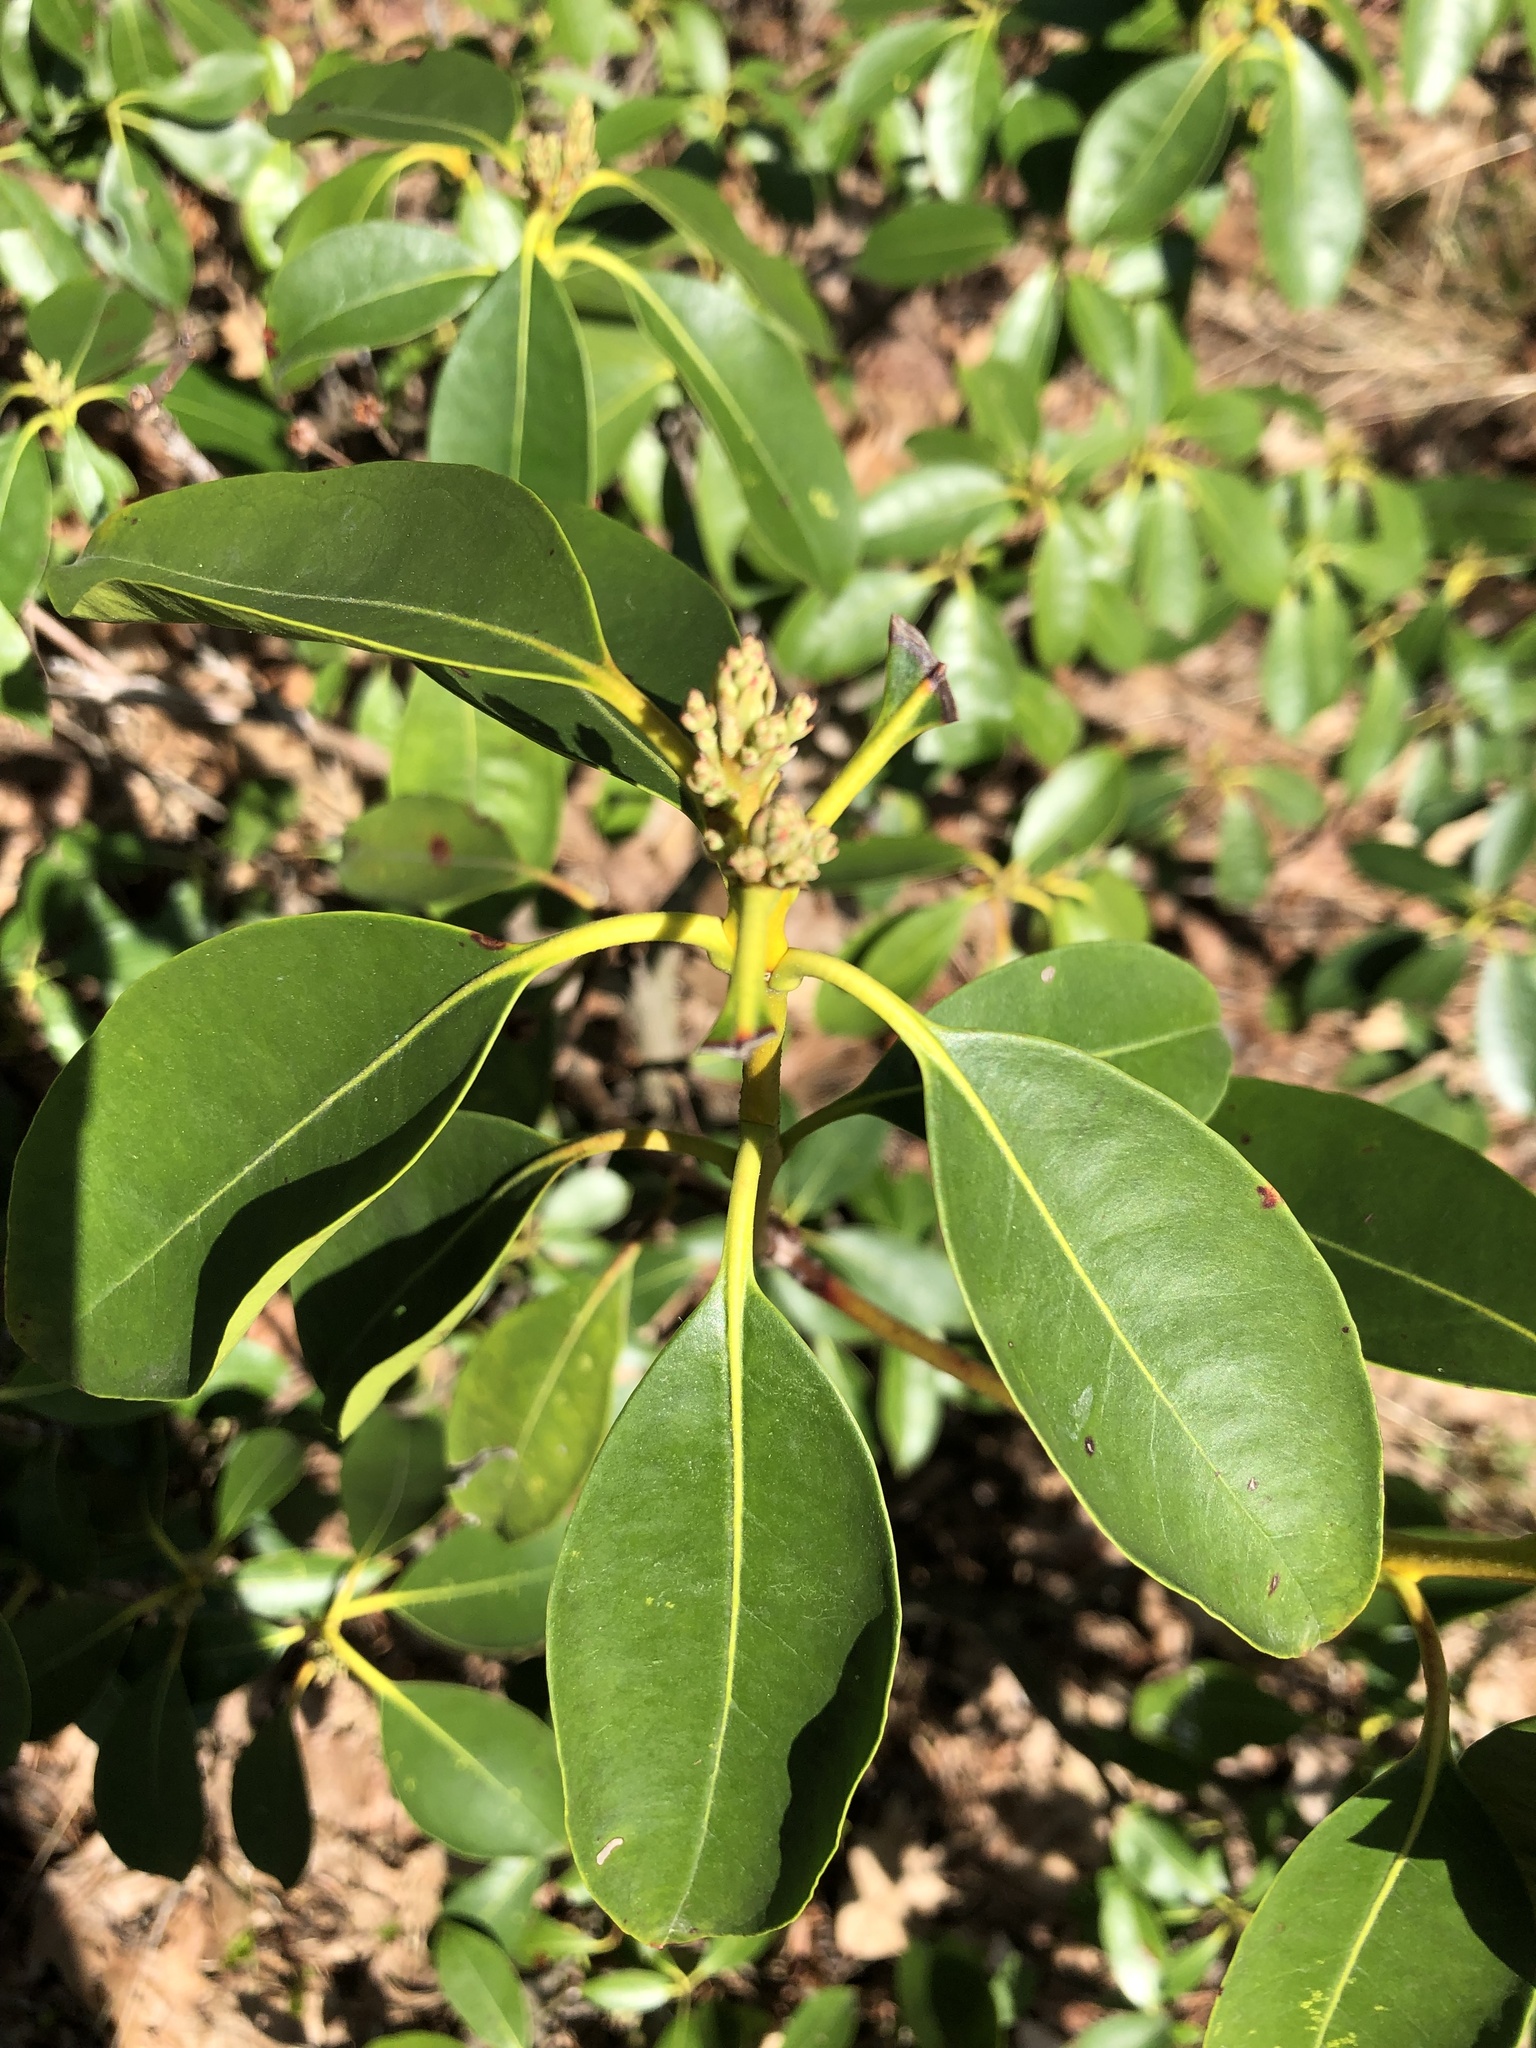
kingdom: Plantae
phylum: Tracheophyta
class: Magnoliopsida
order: Ericales
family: Ericaceae
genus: Kalmia
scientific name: Kalmia latifolia
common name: Mountain-laurel
